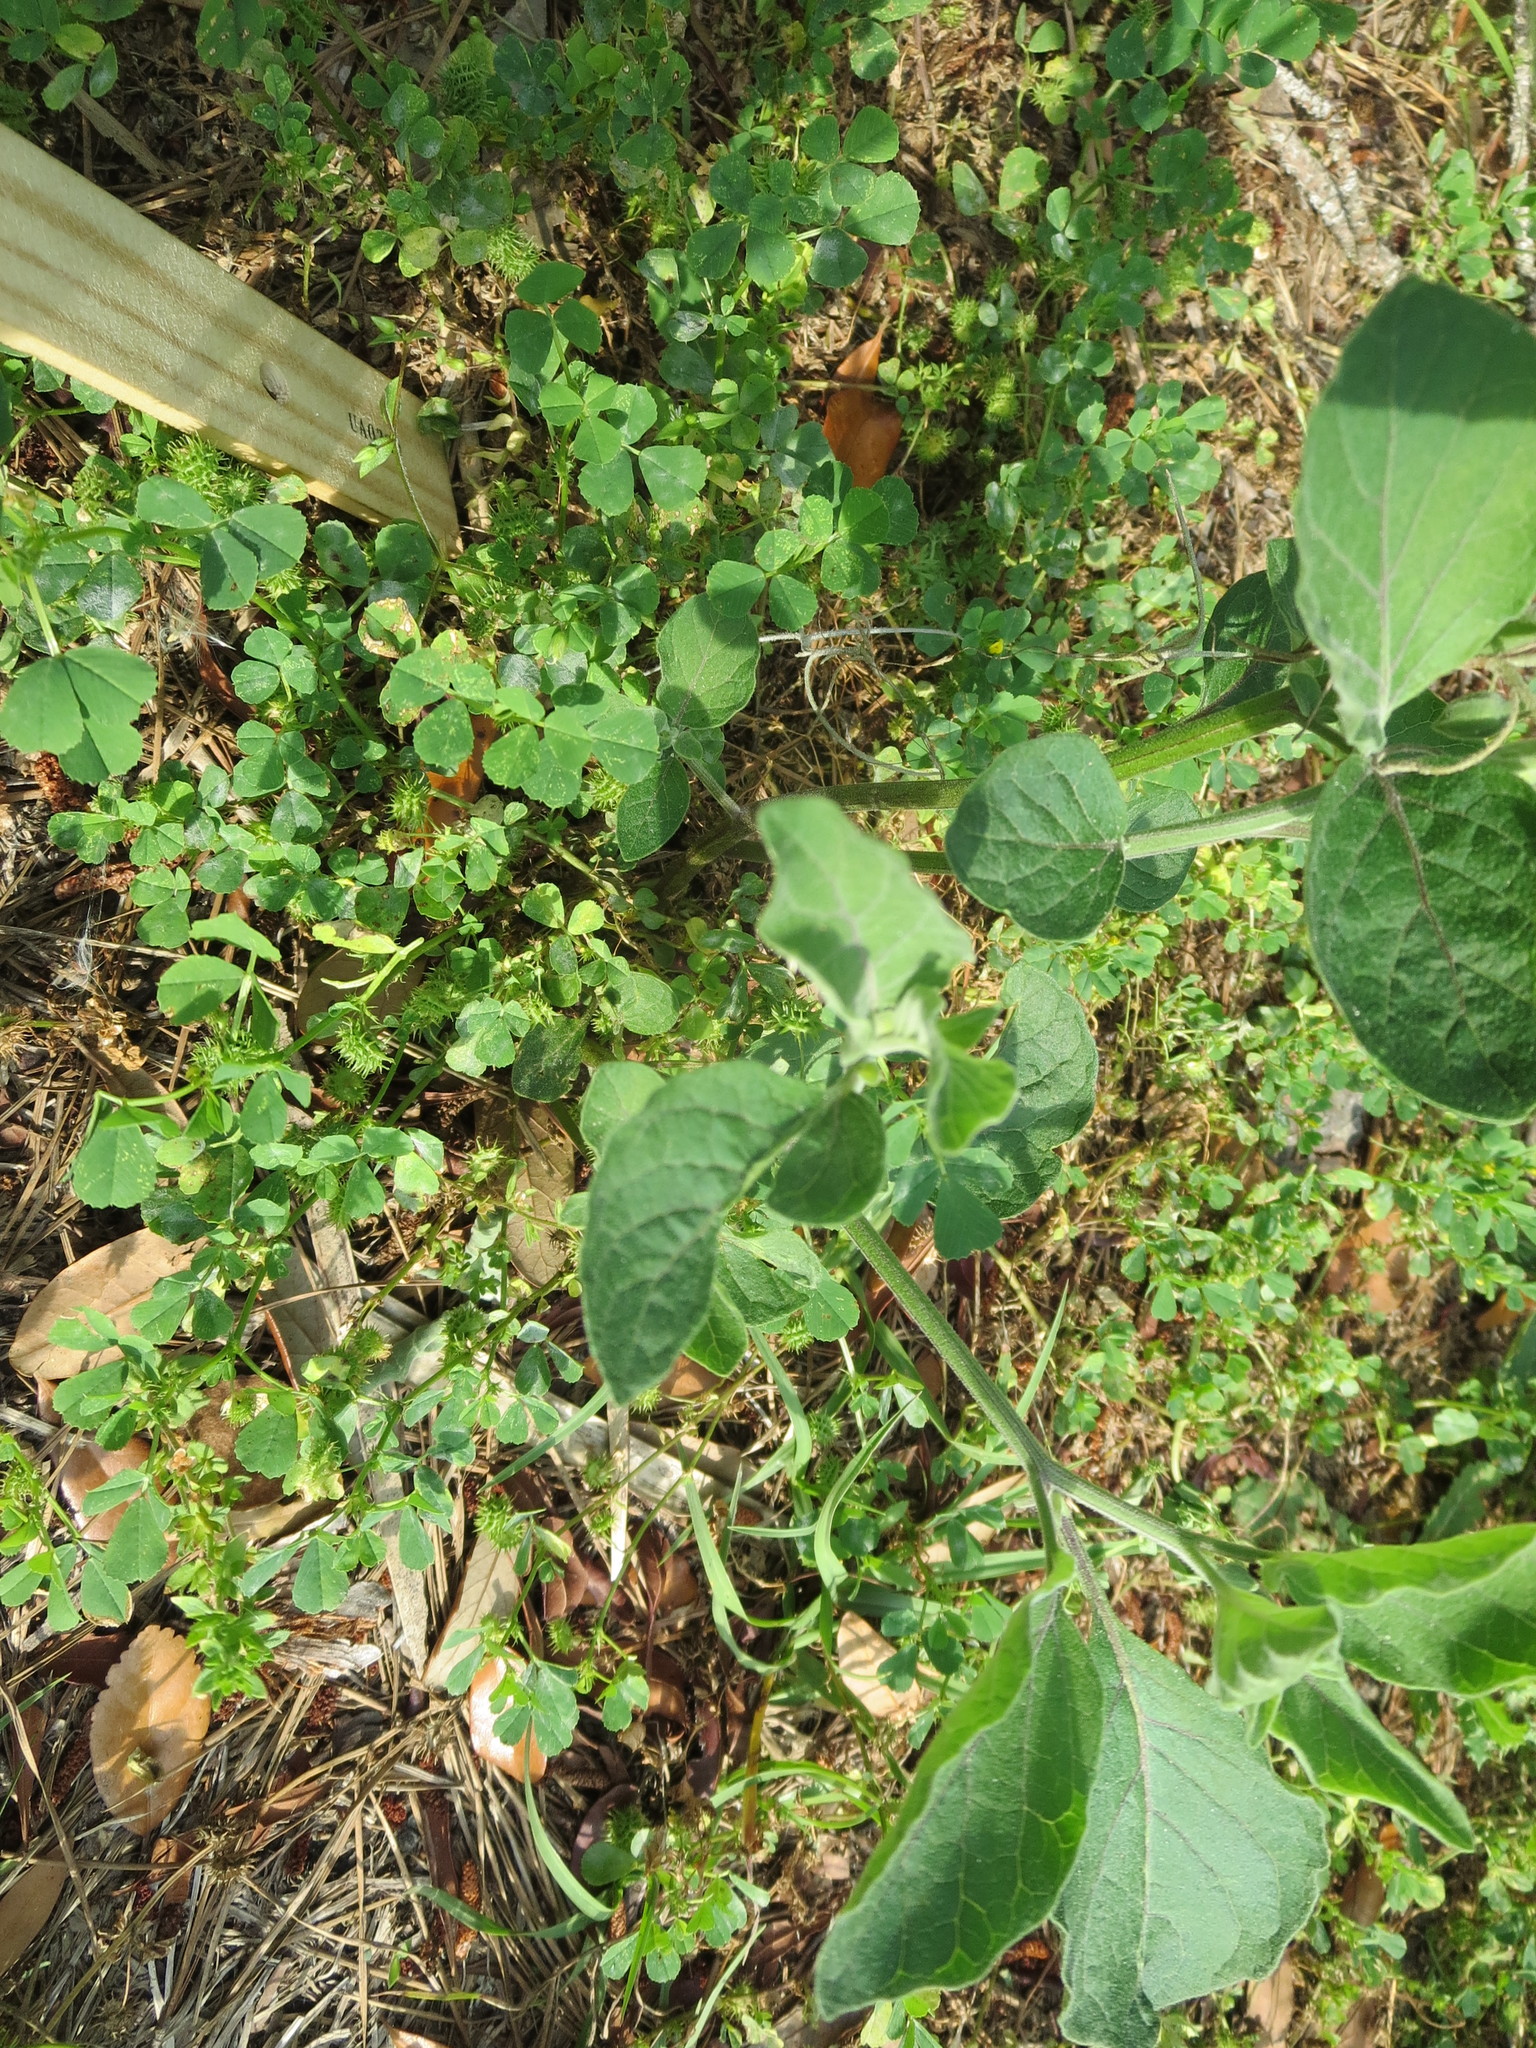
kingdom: Plantae
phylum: Tracheophyta
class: Magnoliopsida
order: Solanales
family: Solanaceae
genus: Physalis
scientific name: Physalis walteri
